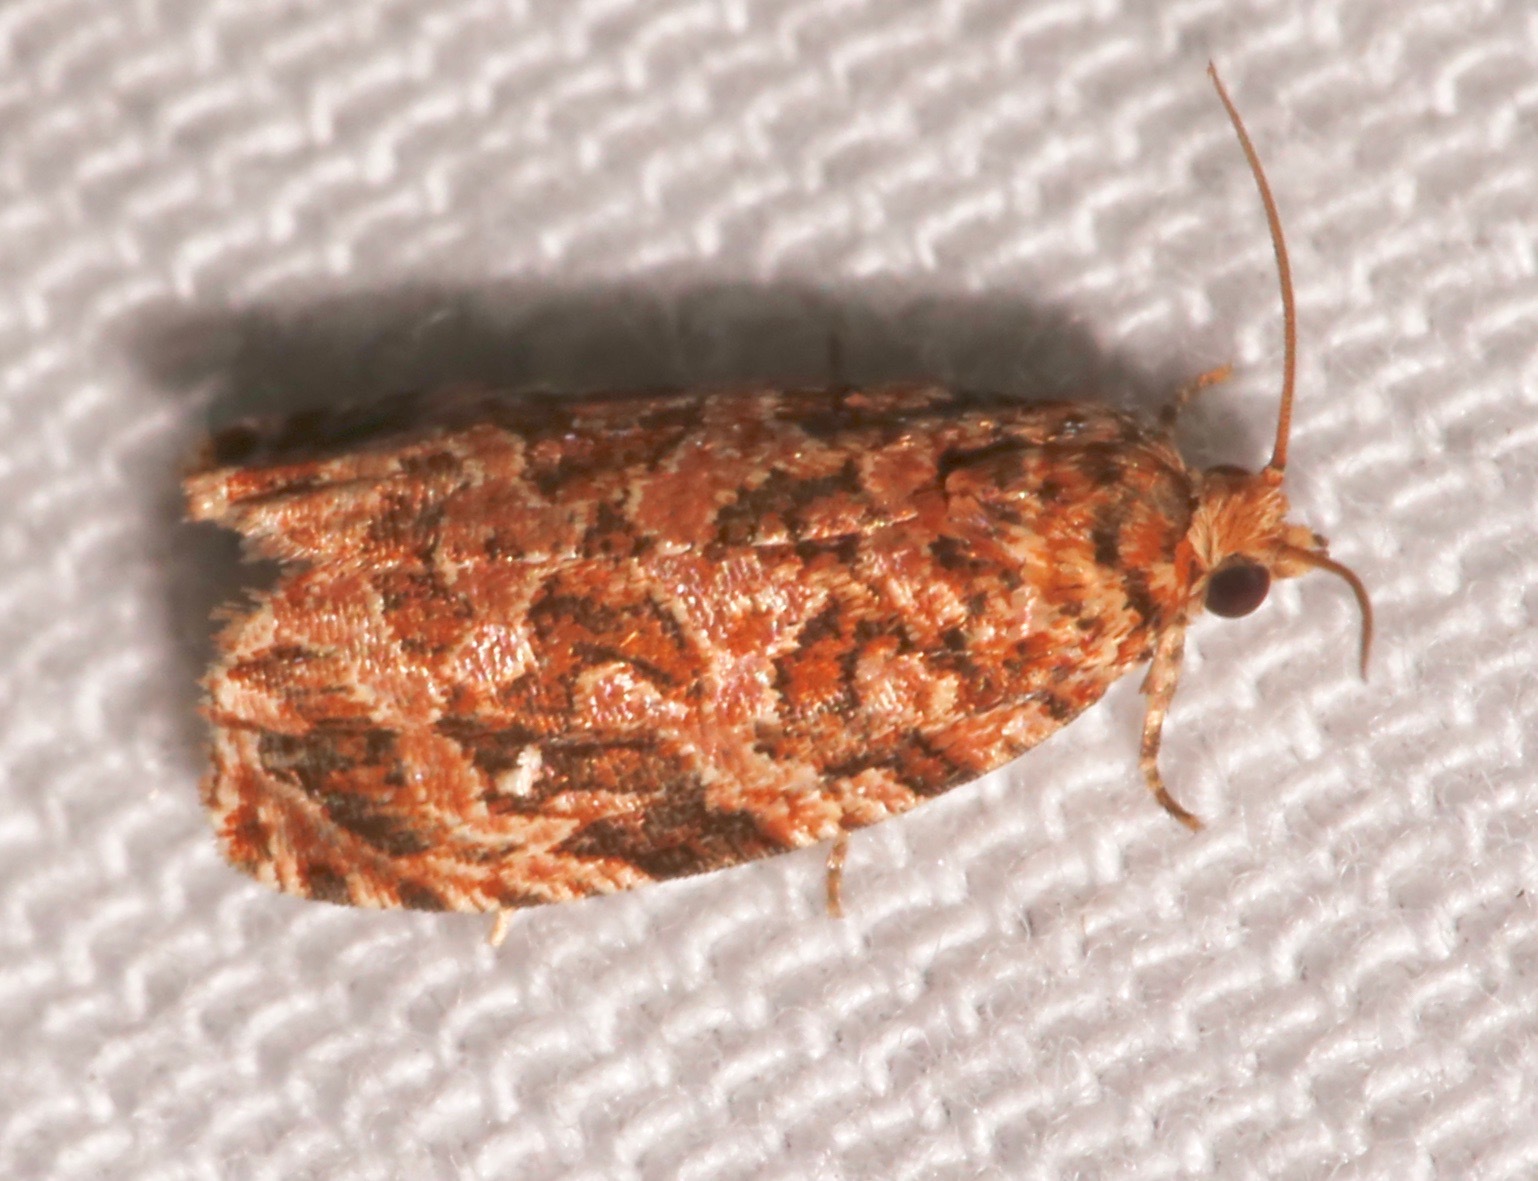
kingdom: Animalia
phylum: Arthropoda
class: Insecta
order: Lepidoptera
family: Tortricidae
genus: Phaecasiophora
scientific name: Phaecasiophora niveiguttana
